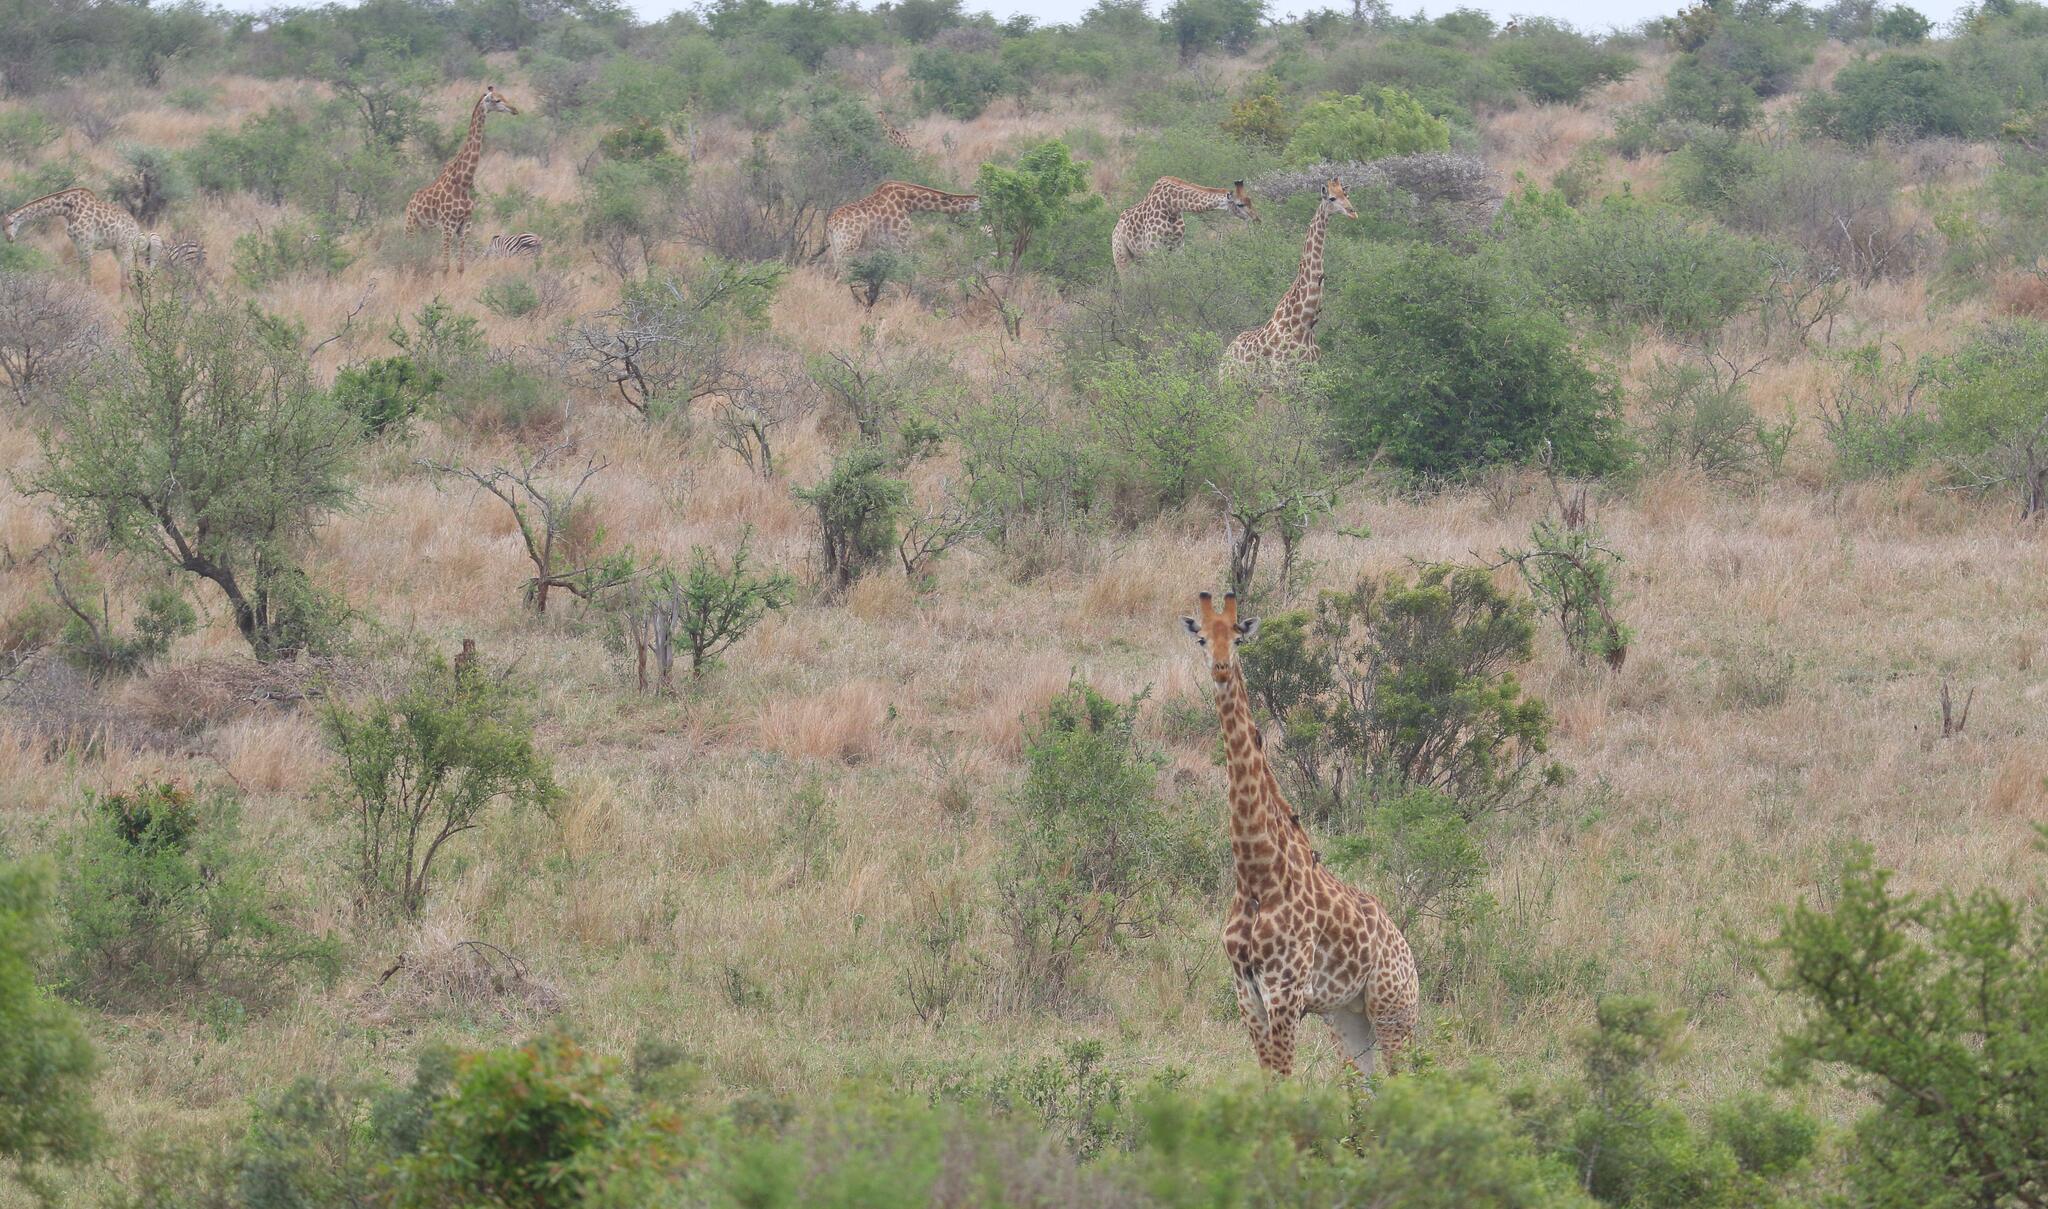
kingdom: Animalia
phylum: Chordata
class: Mammalia
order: Artiodactyla
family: Giraffidae
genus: Giraffa
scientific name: Giraffa giraffa
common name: Southern giraffe
